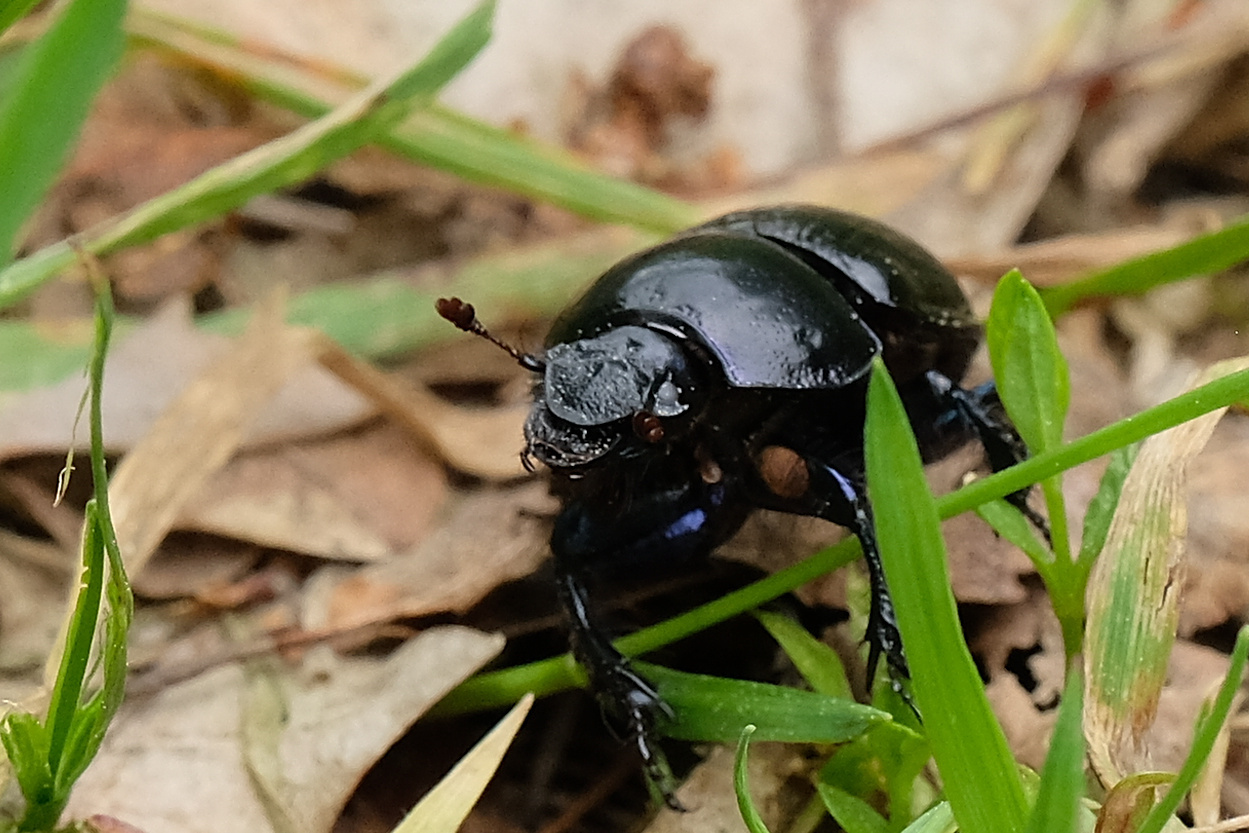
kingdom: Animalia
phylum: Arthropoda
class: Insecta
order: Coleoptera
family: Geotrupidae
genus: Anoplotrupes
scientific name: Anoplotrupes stercorosus
